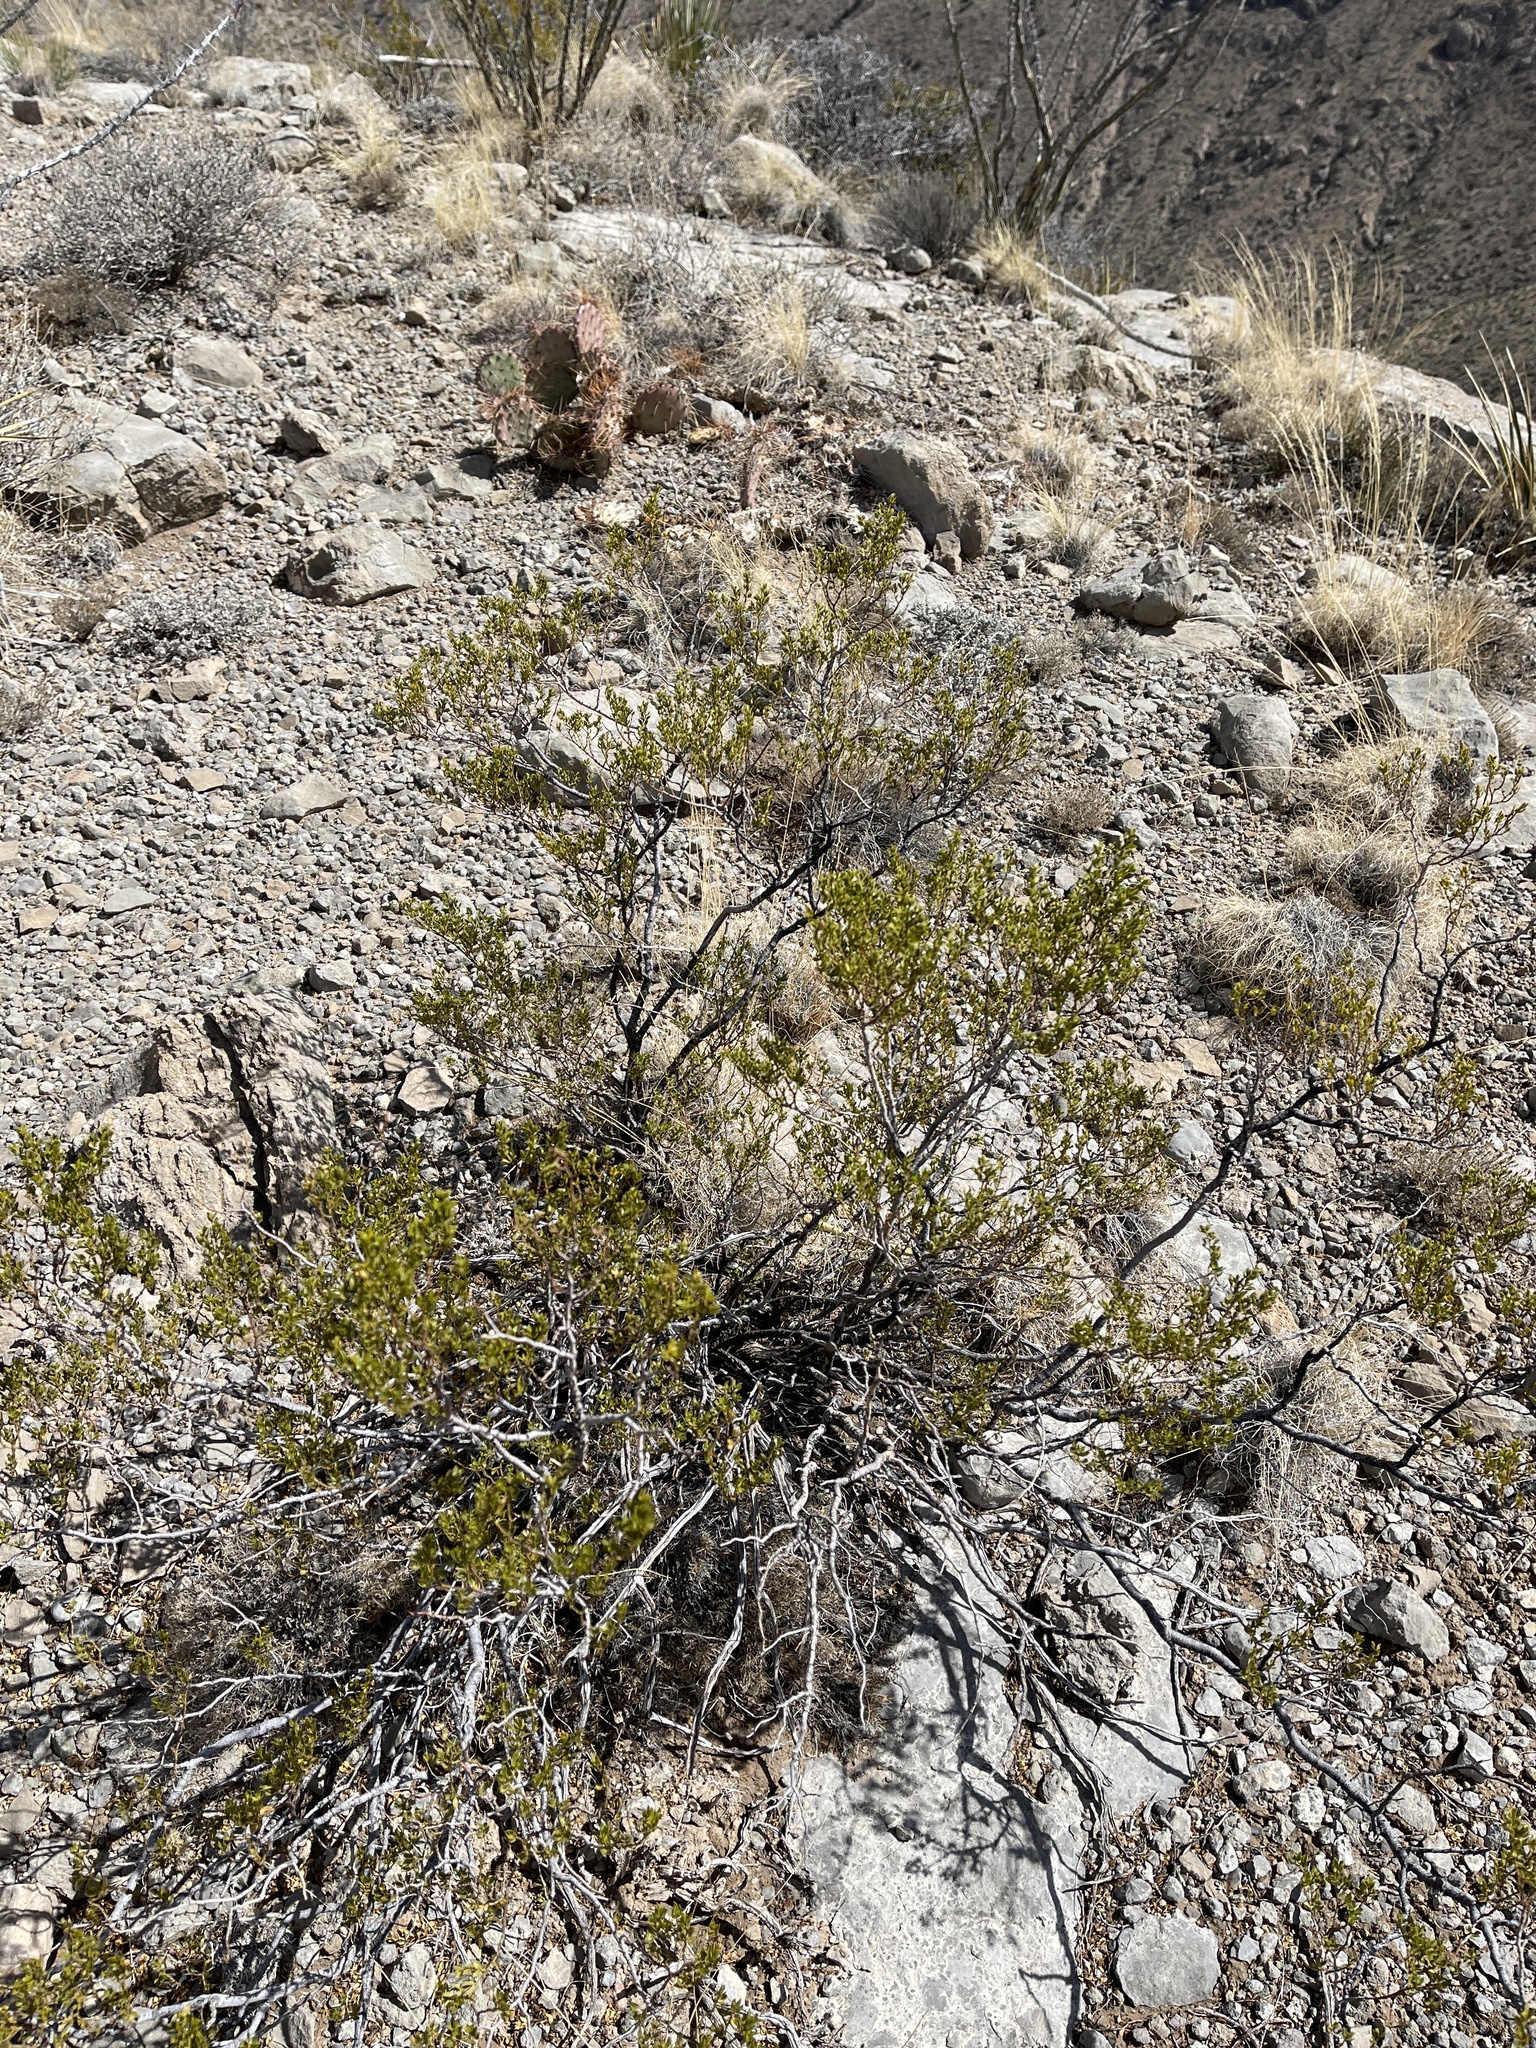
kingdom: Plantae
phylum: Tracheophyta
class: Magnoliopsida
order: Zygophyllales
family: Zygophyllaceae
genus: Larrea
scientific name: Larrea tridentata
